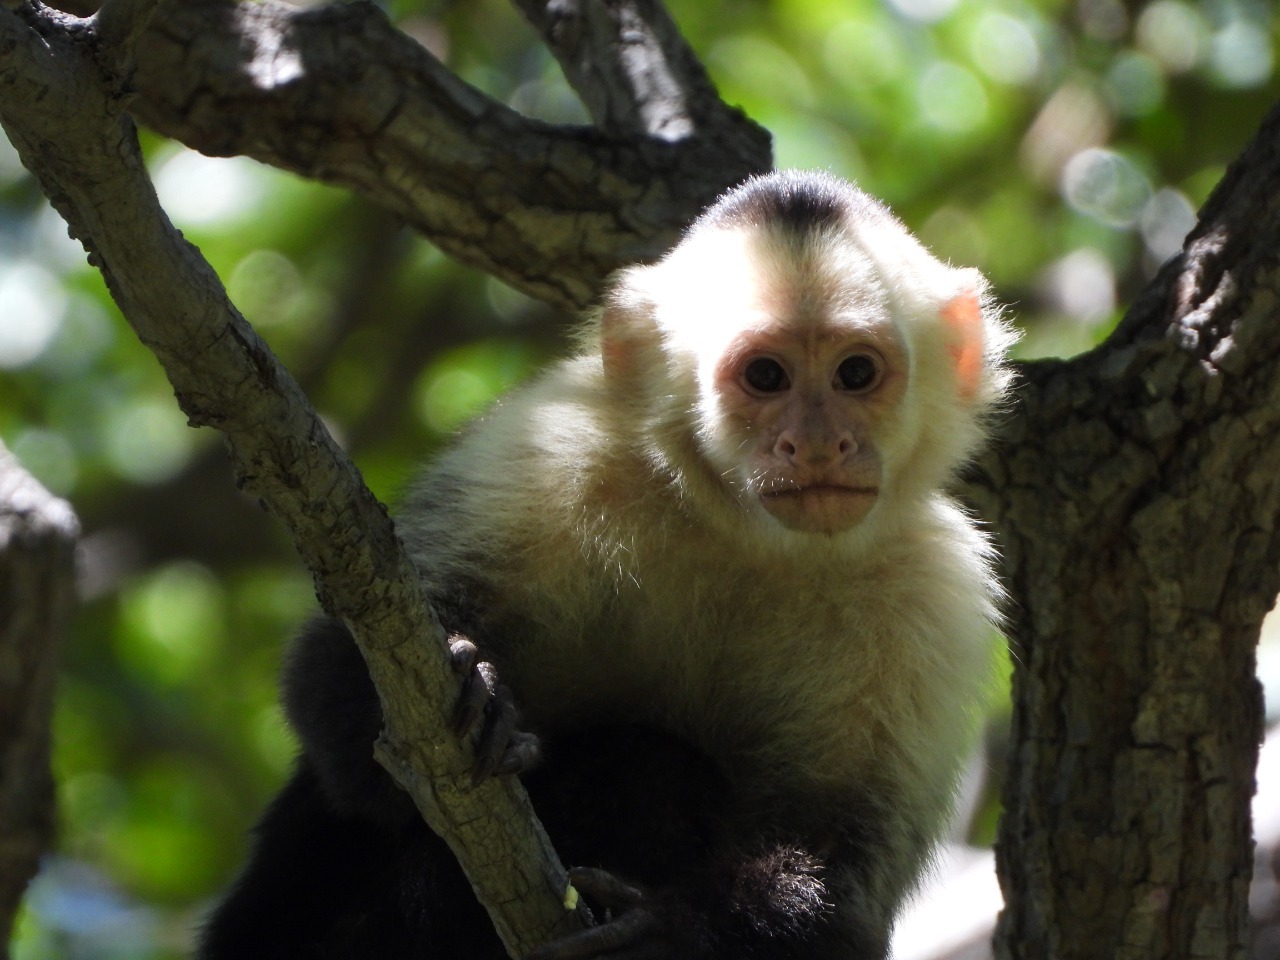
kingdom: Animalia
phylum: Chordata
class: Mammalia
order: Primates
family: Cebidae
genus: Cebus
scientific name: Cebus imitator
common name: Panamanian white-faced capuchin
